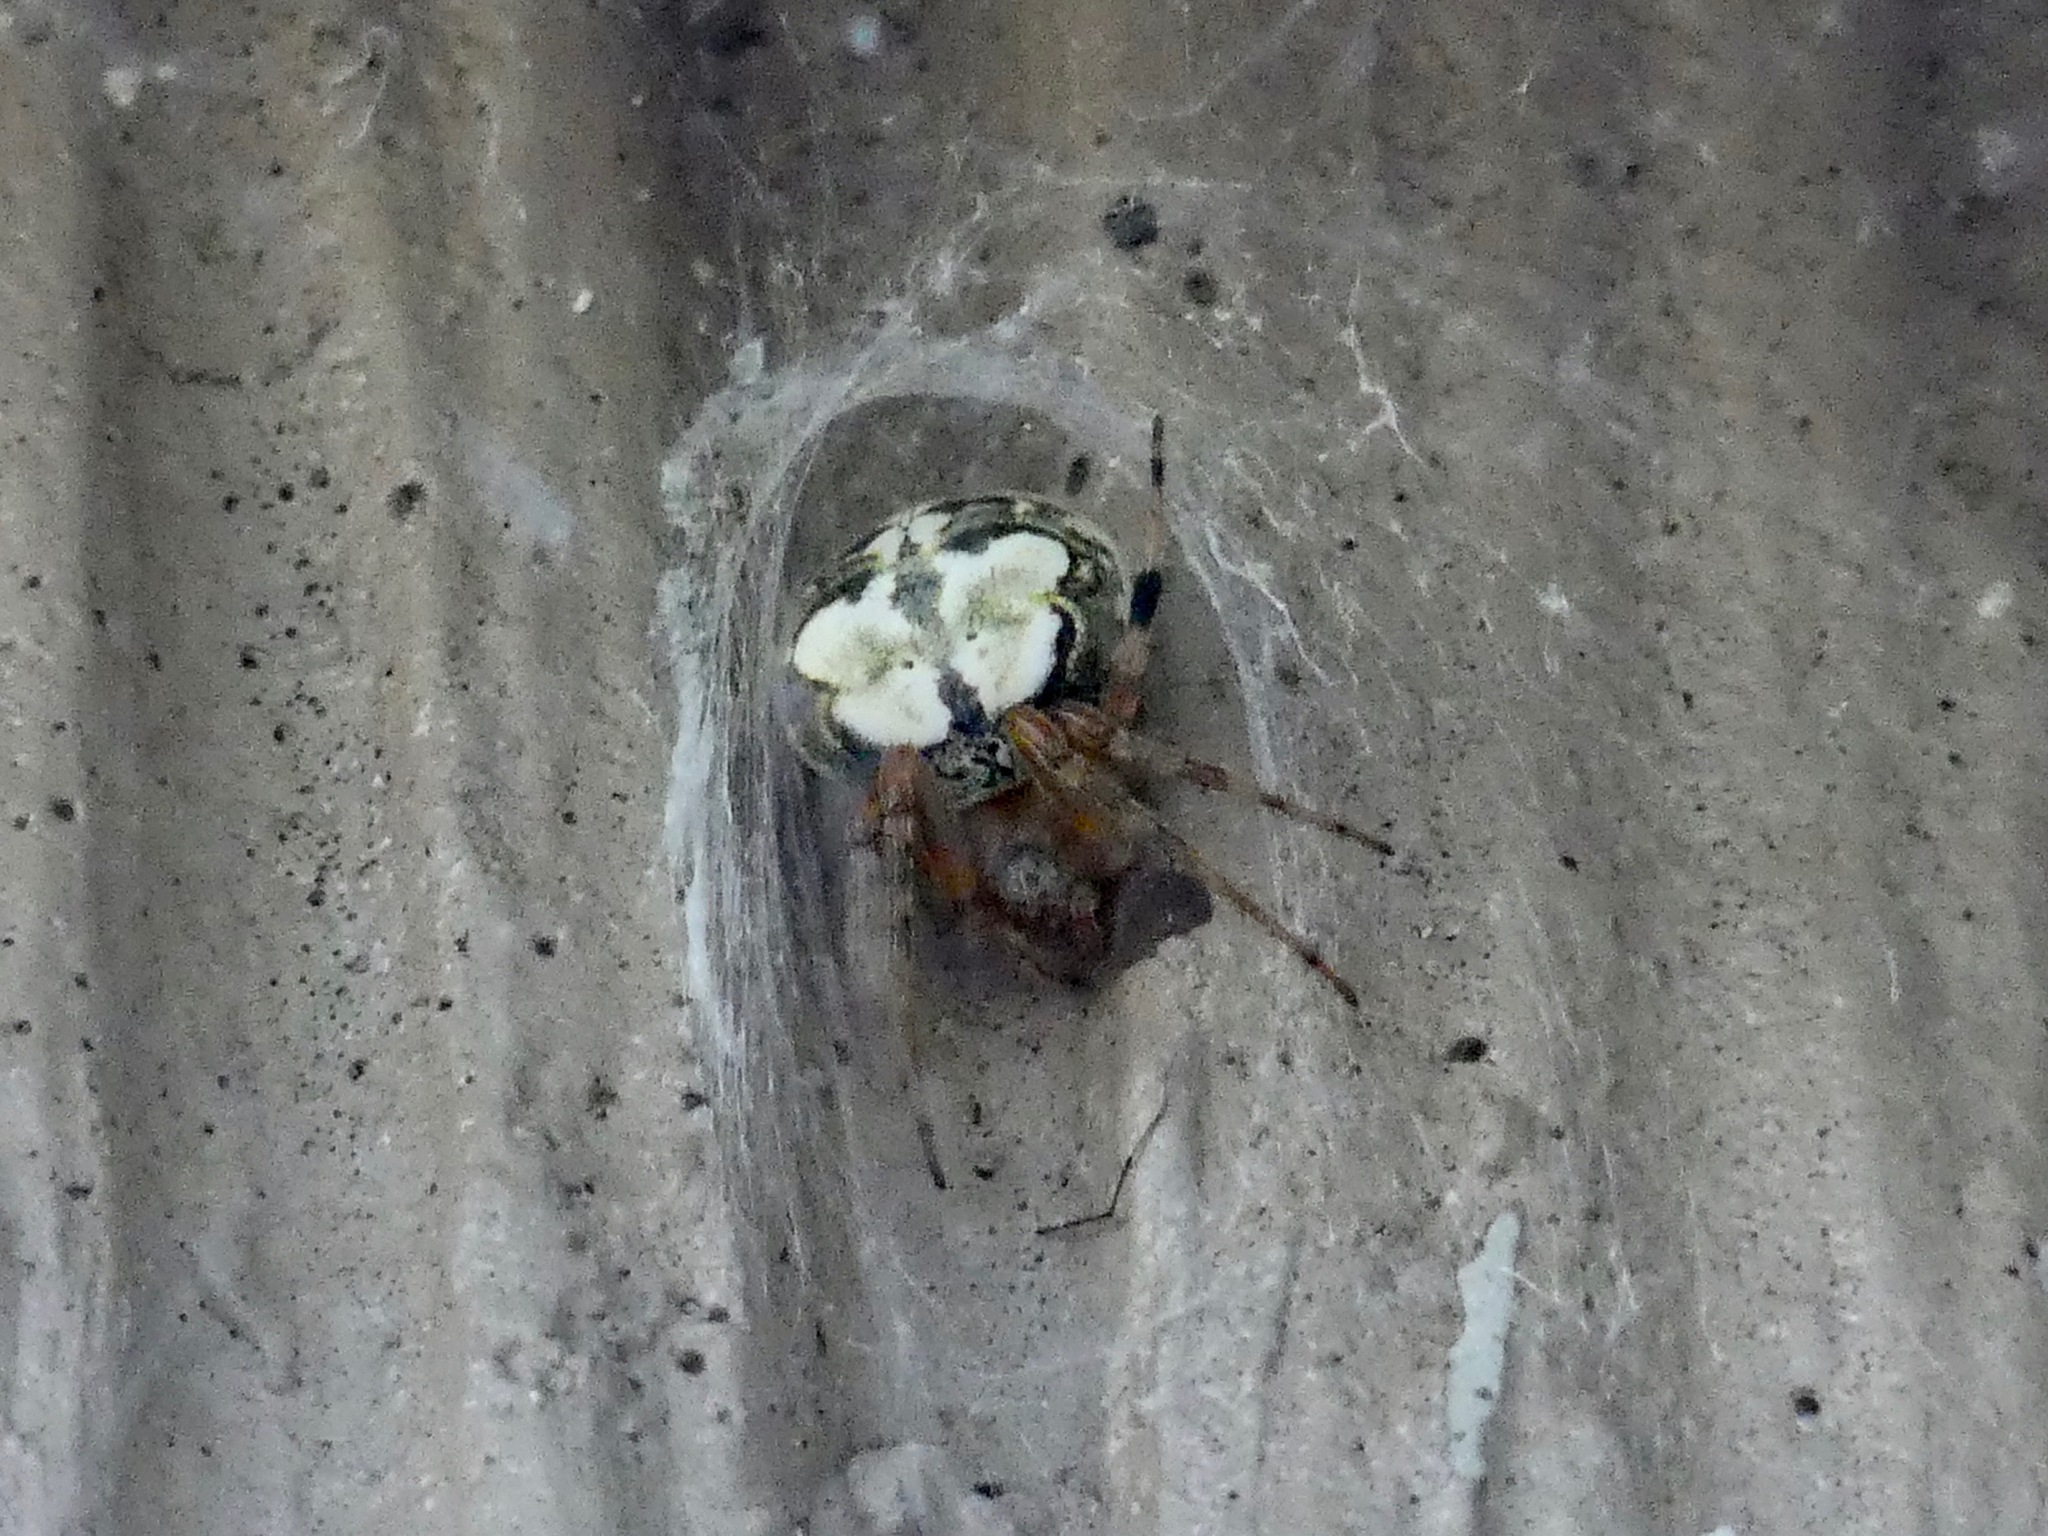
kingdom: Animalia
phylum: Arthropoda
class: Arachnida
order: Araneae
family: Araneidae
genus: Araneus
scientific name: Araneus pegnia
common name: Orb weavers
